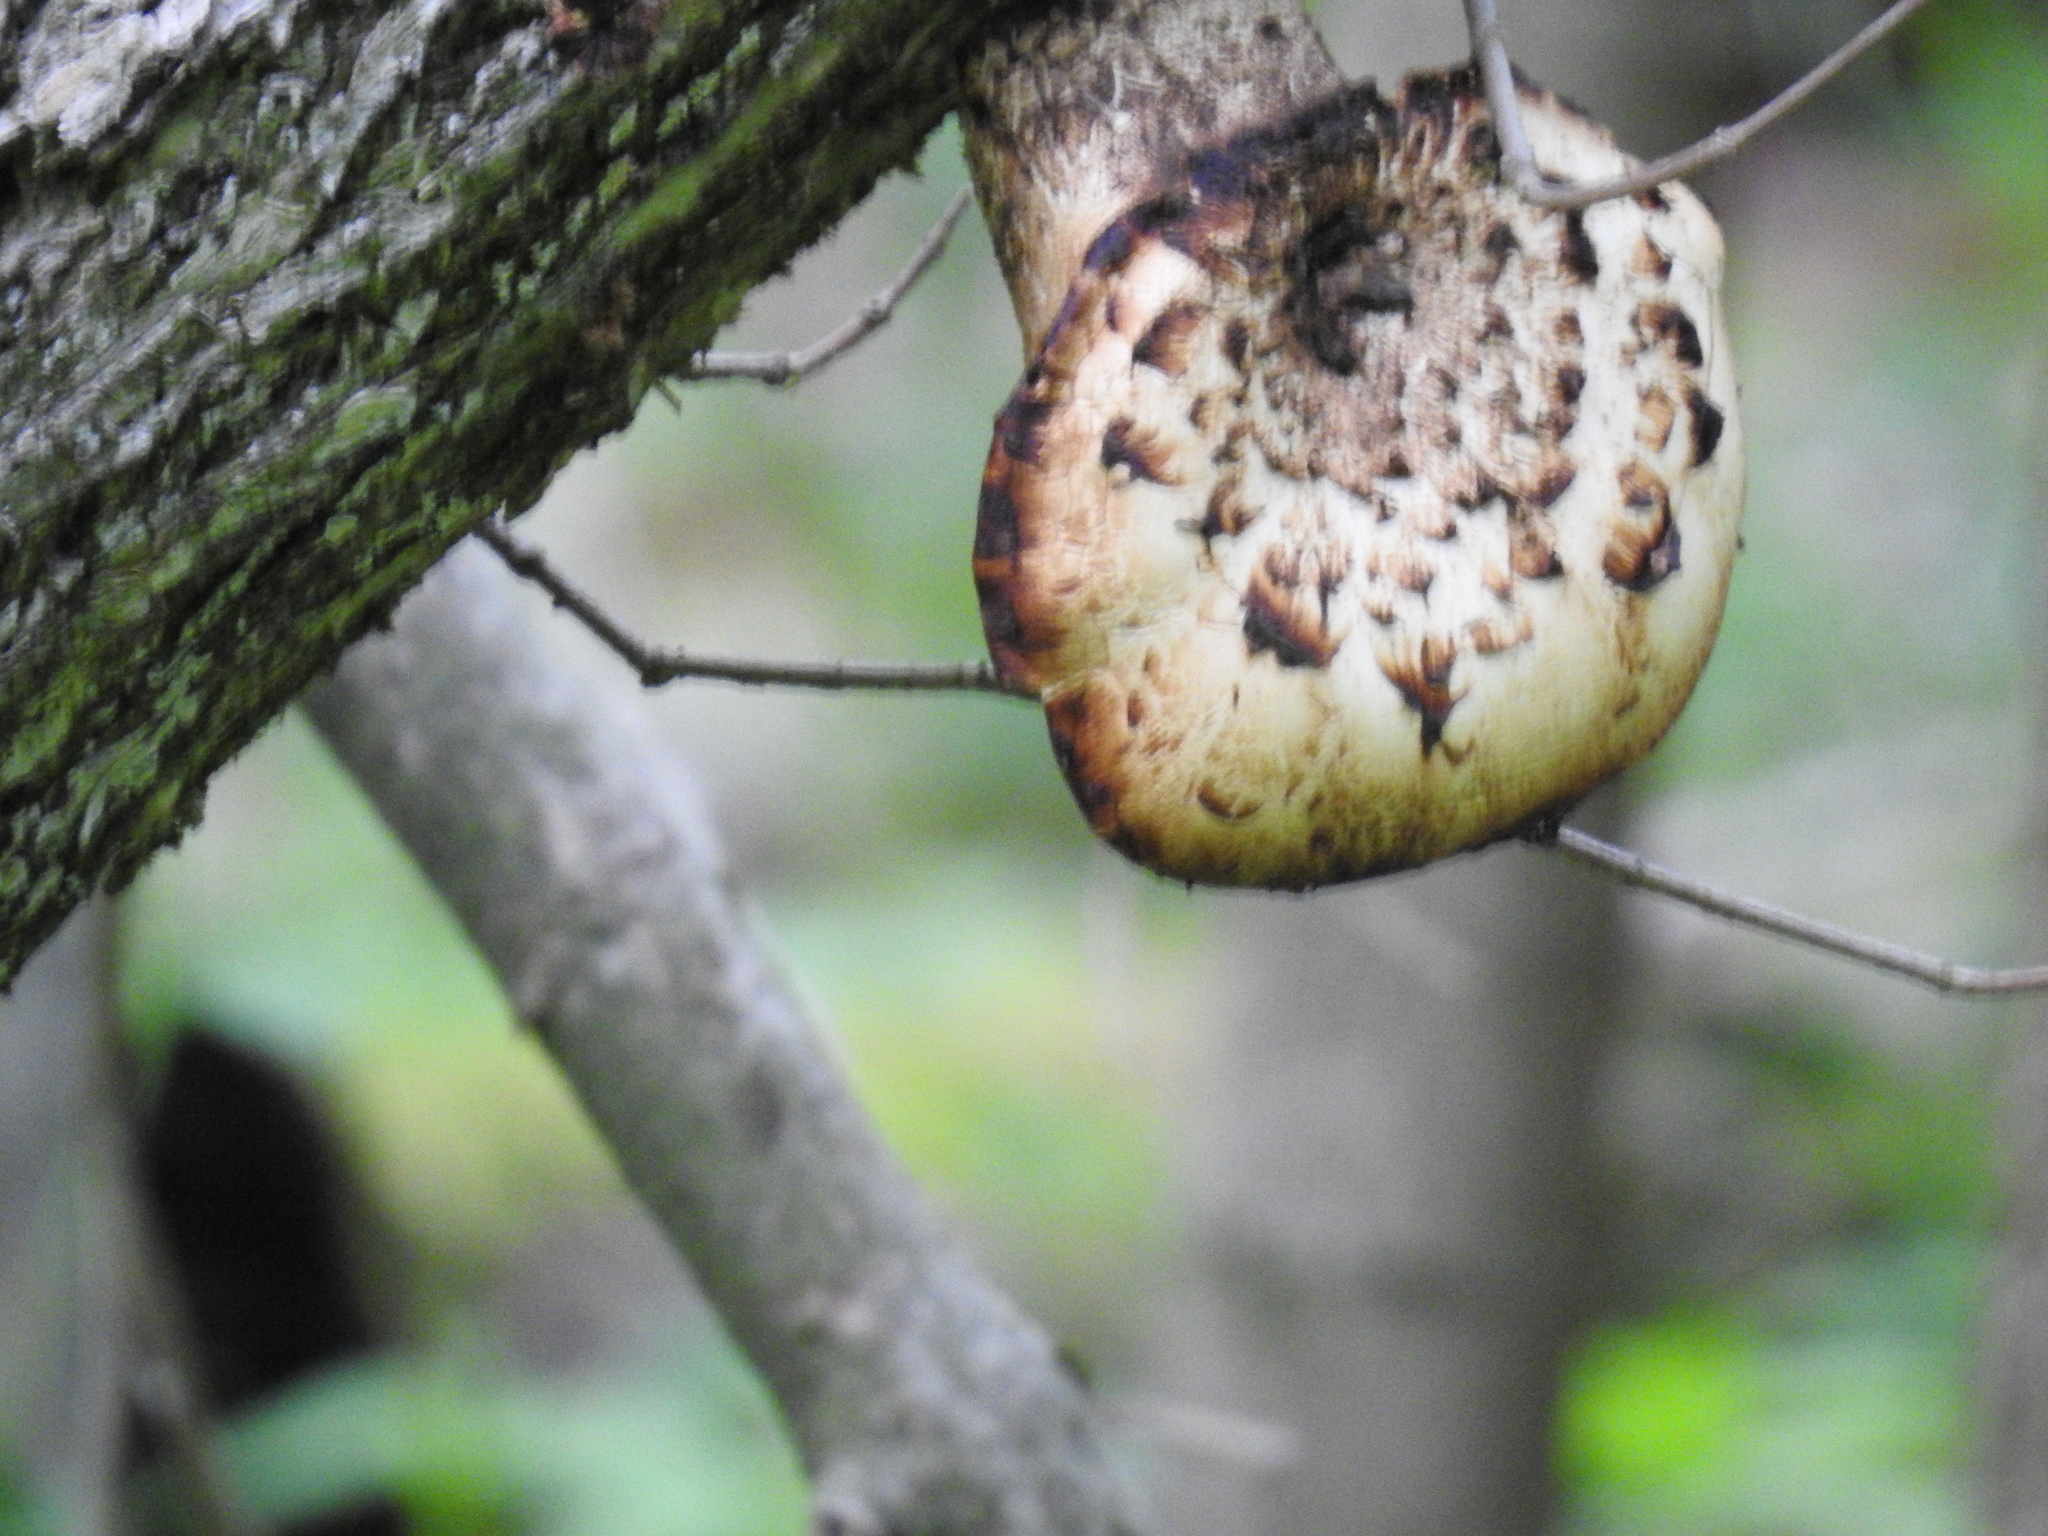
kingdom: Fungi
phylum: Basidiomycota
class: Agaricomycetes
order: Polyporales
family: Polyporaceae
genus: Cerioporus
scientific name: Cerioporus squamosus
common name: Dryad's saddle
